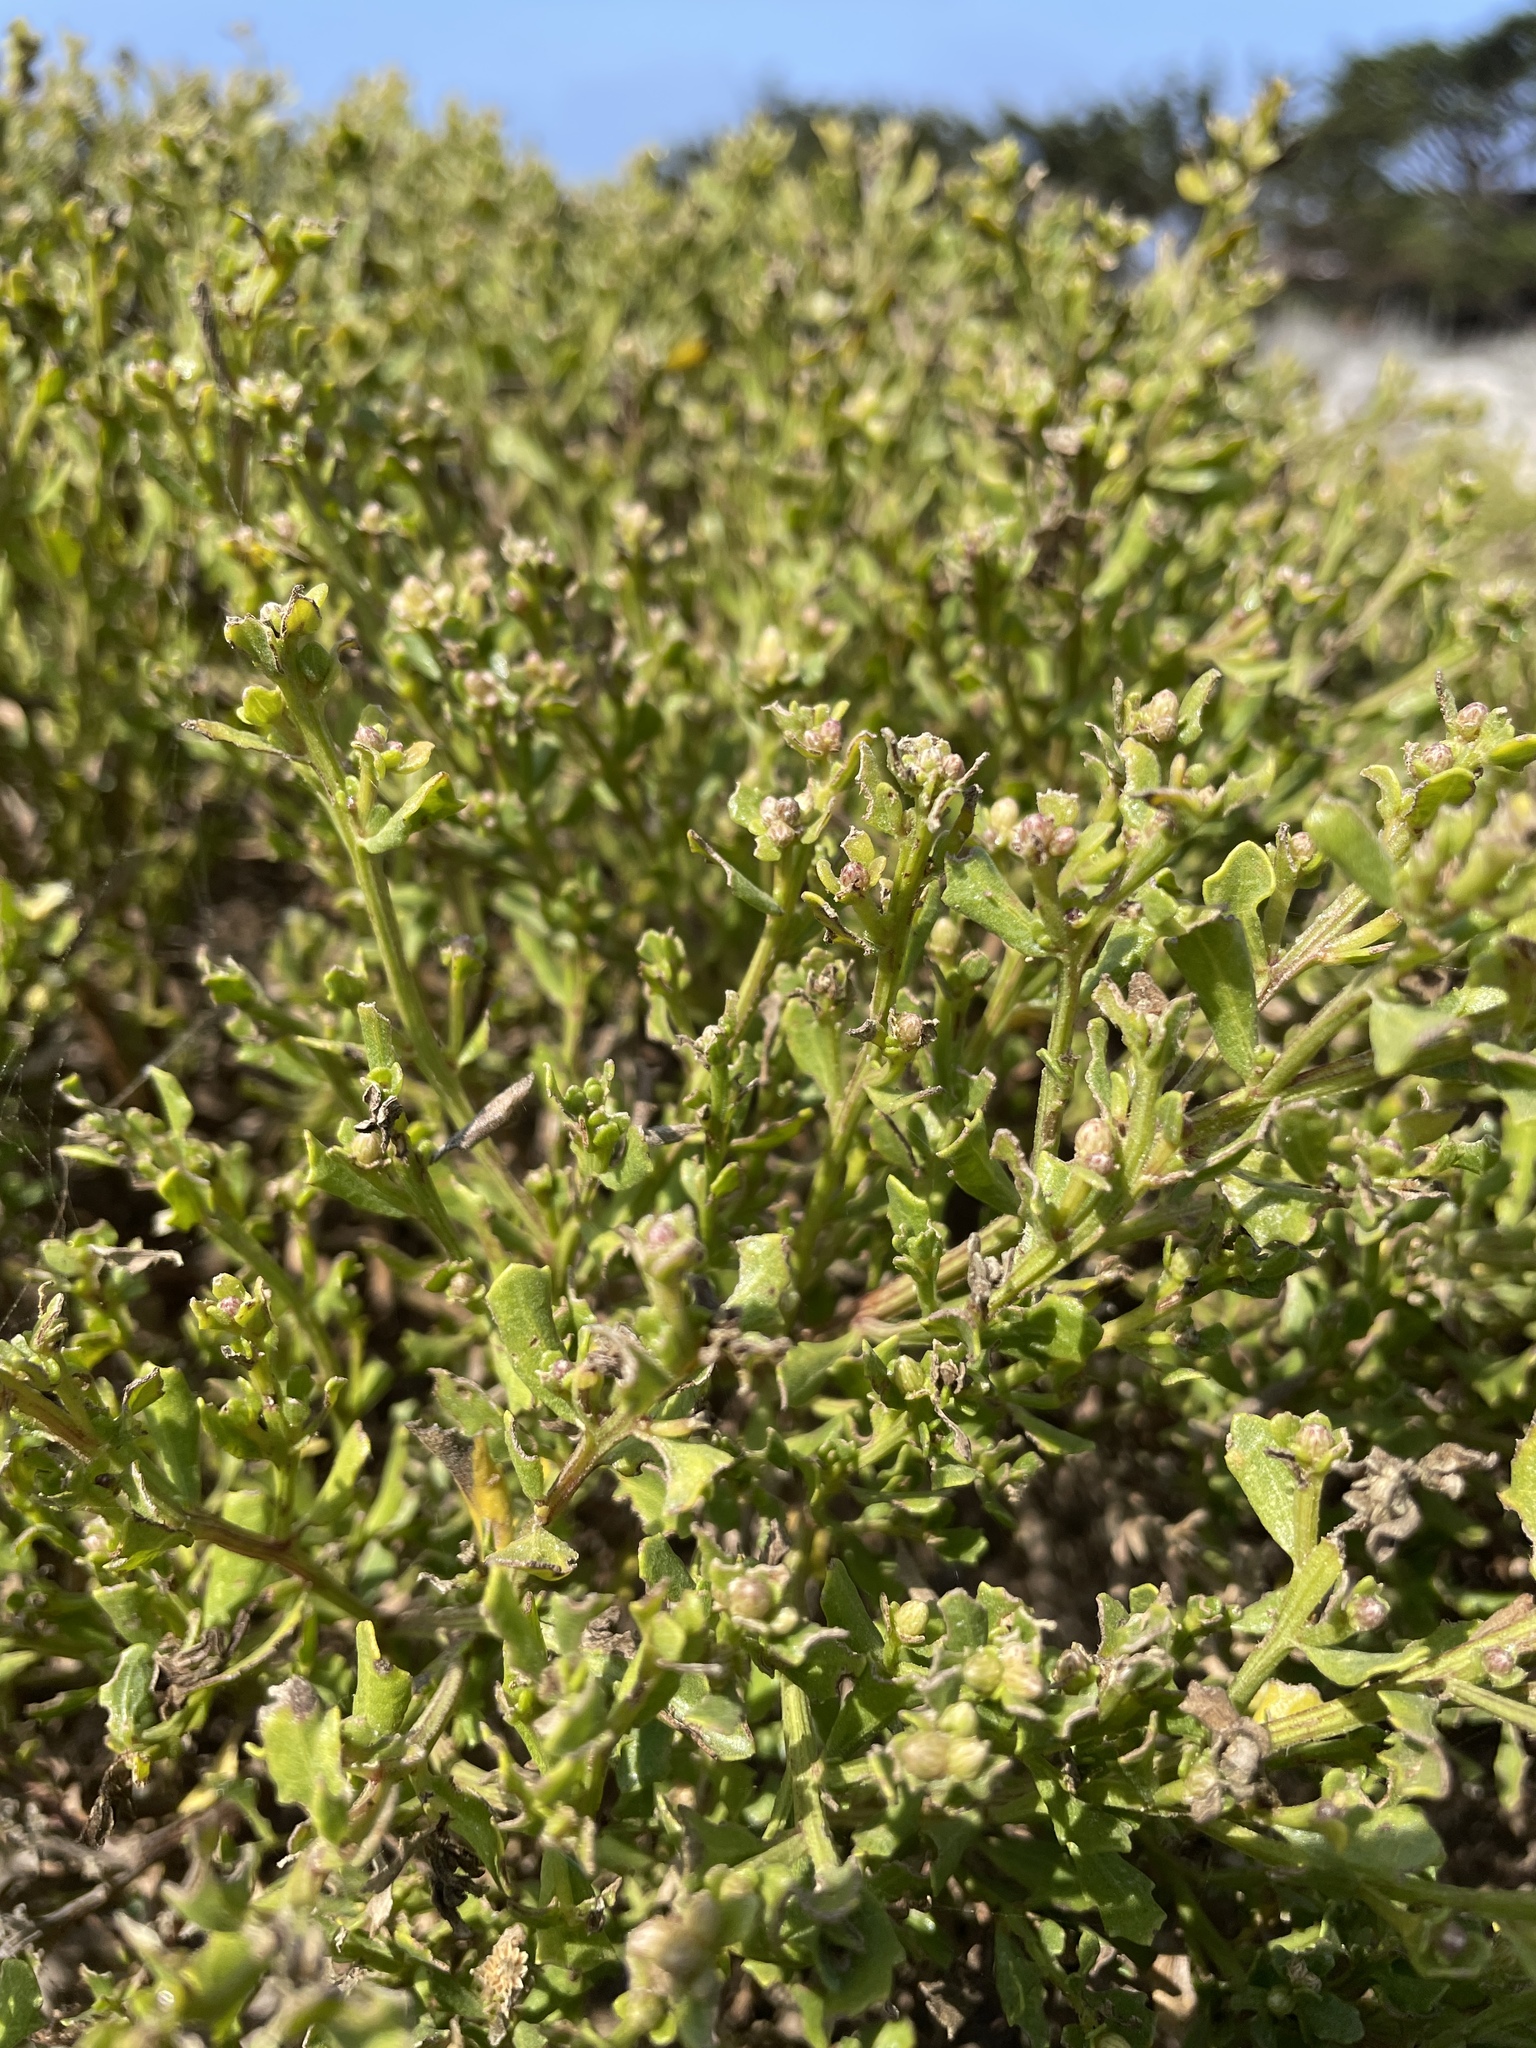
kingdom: Plantae
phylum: Tracheophyta
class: Magnoliopsida
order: Asterales
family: Asteraceae
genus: Baccharis
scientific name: Baccharis pilularis
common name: Coyotebrush
